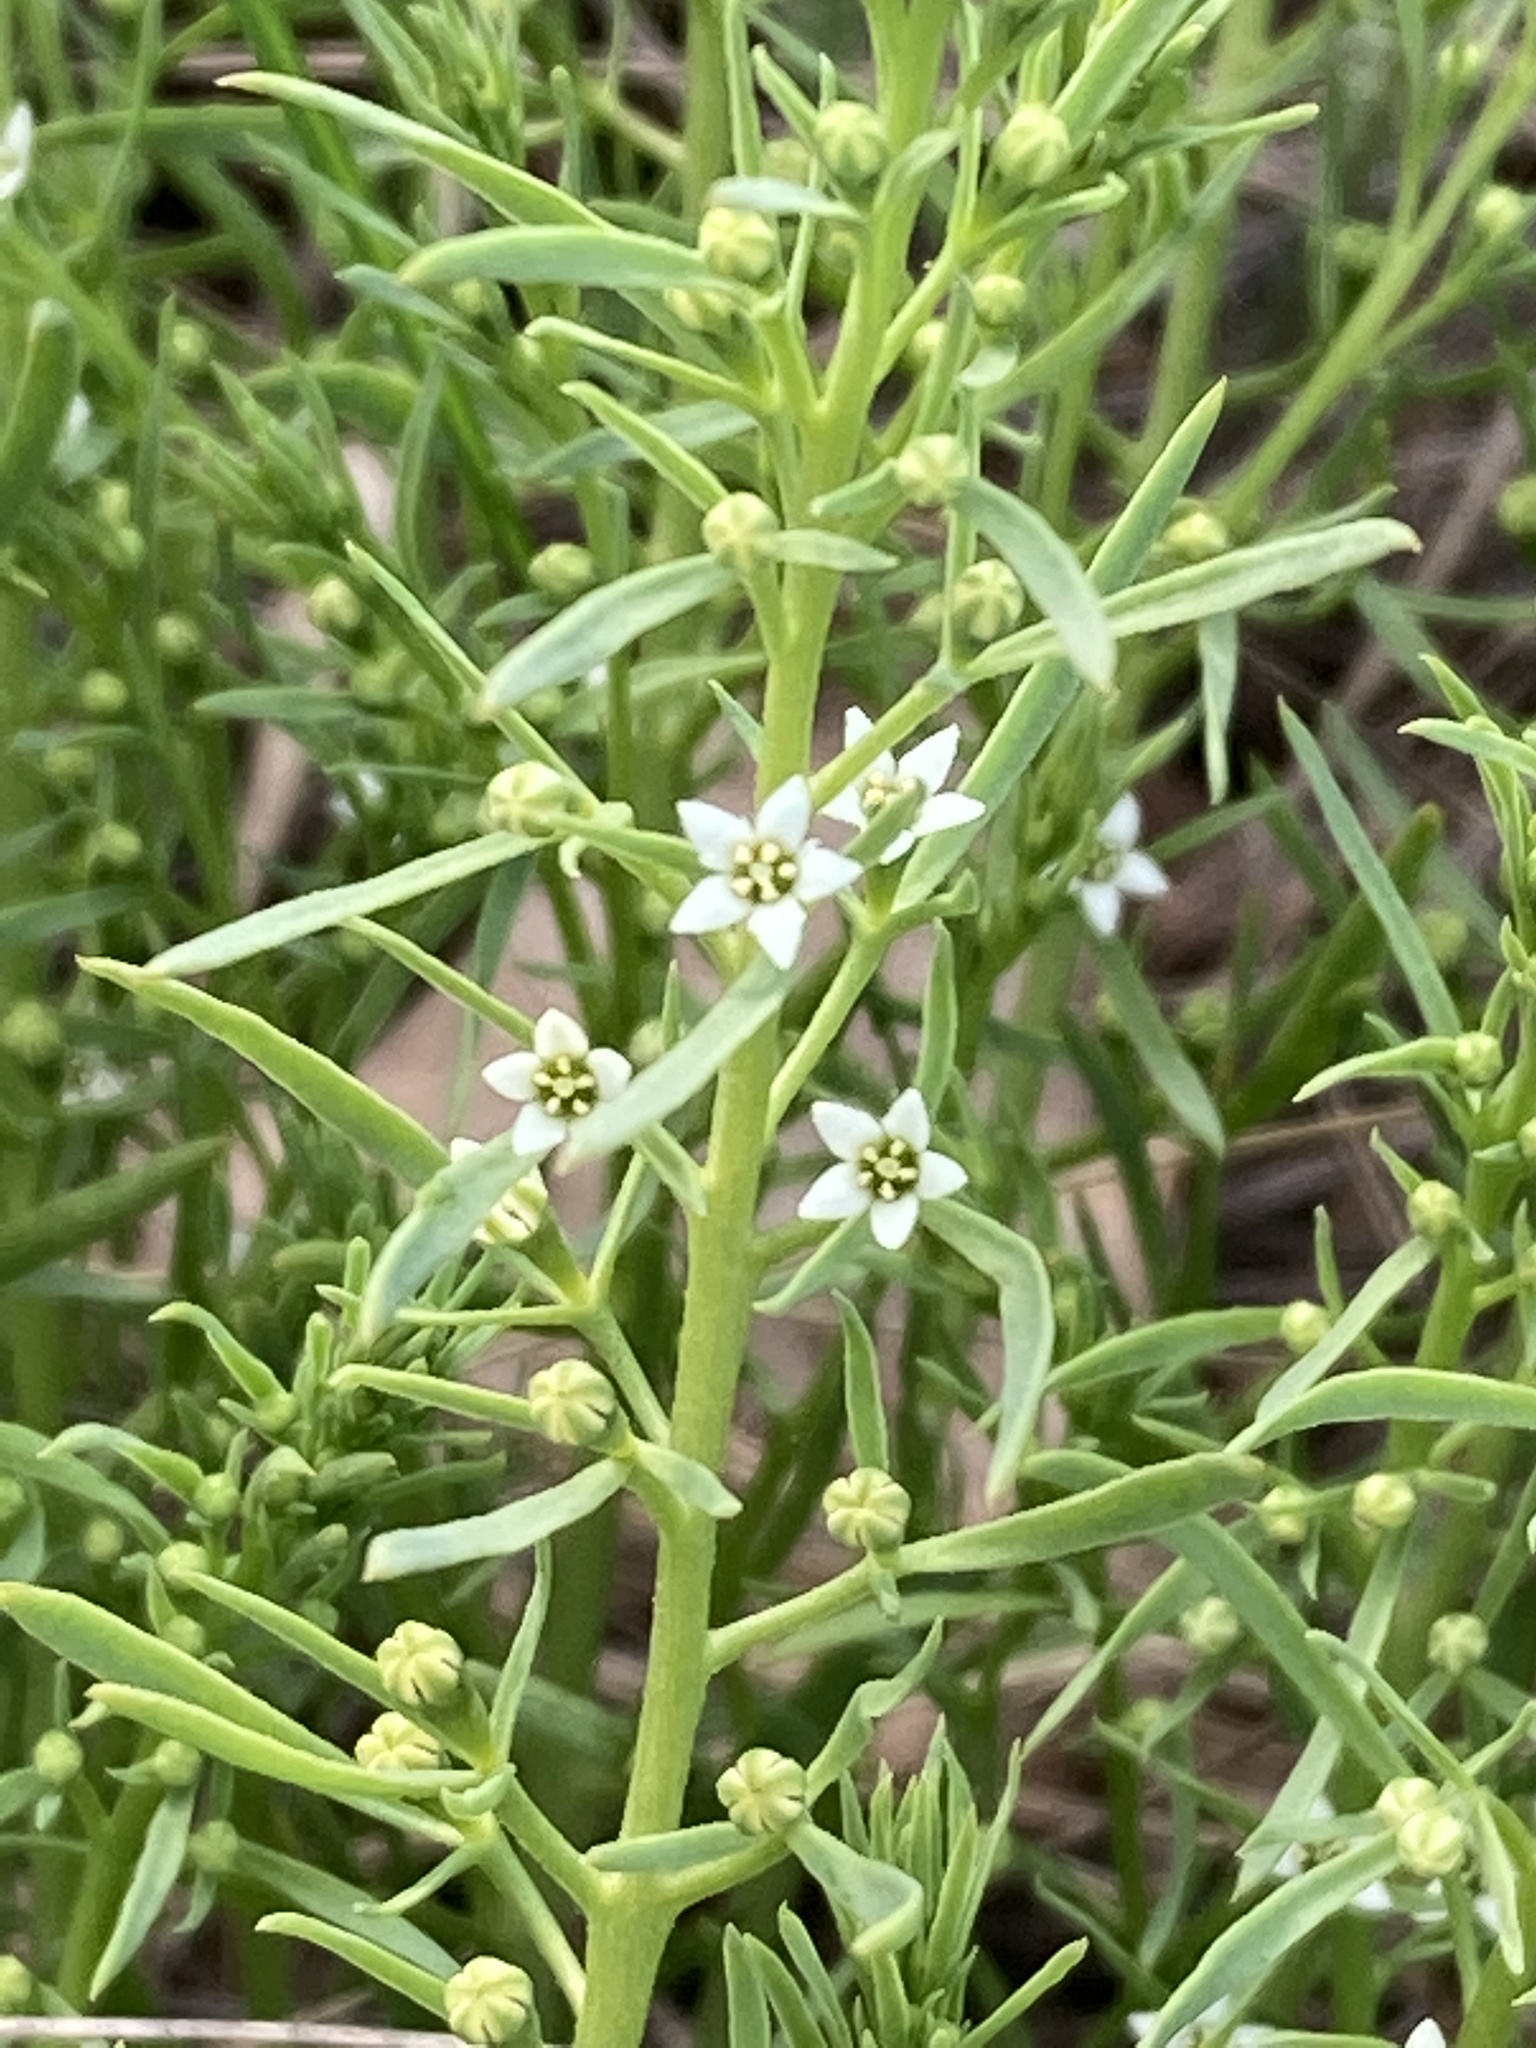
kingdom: Plantae
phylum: Tracheophyta
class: Magnoliopsida
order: Santalales
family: Thesiaceae
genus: Thesium
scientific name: Thesium ramosum
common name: Field thesium
